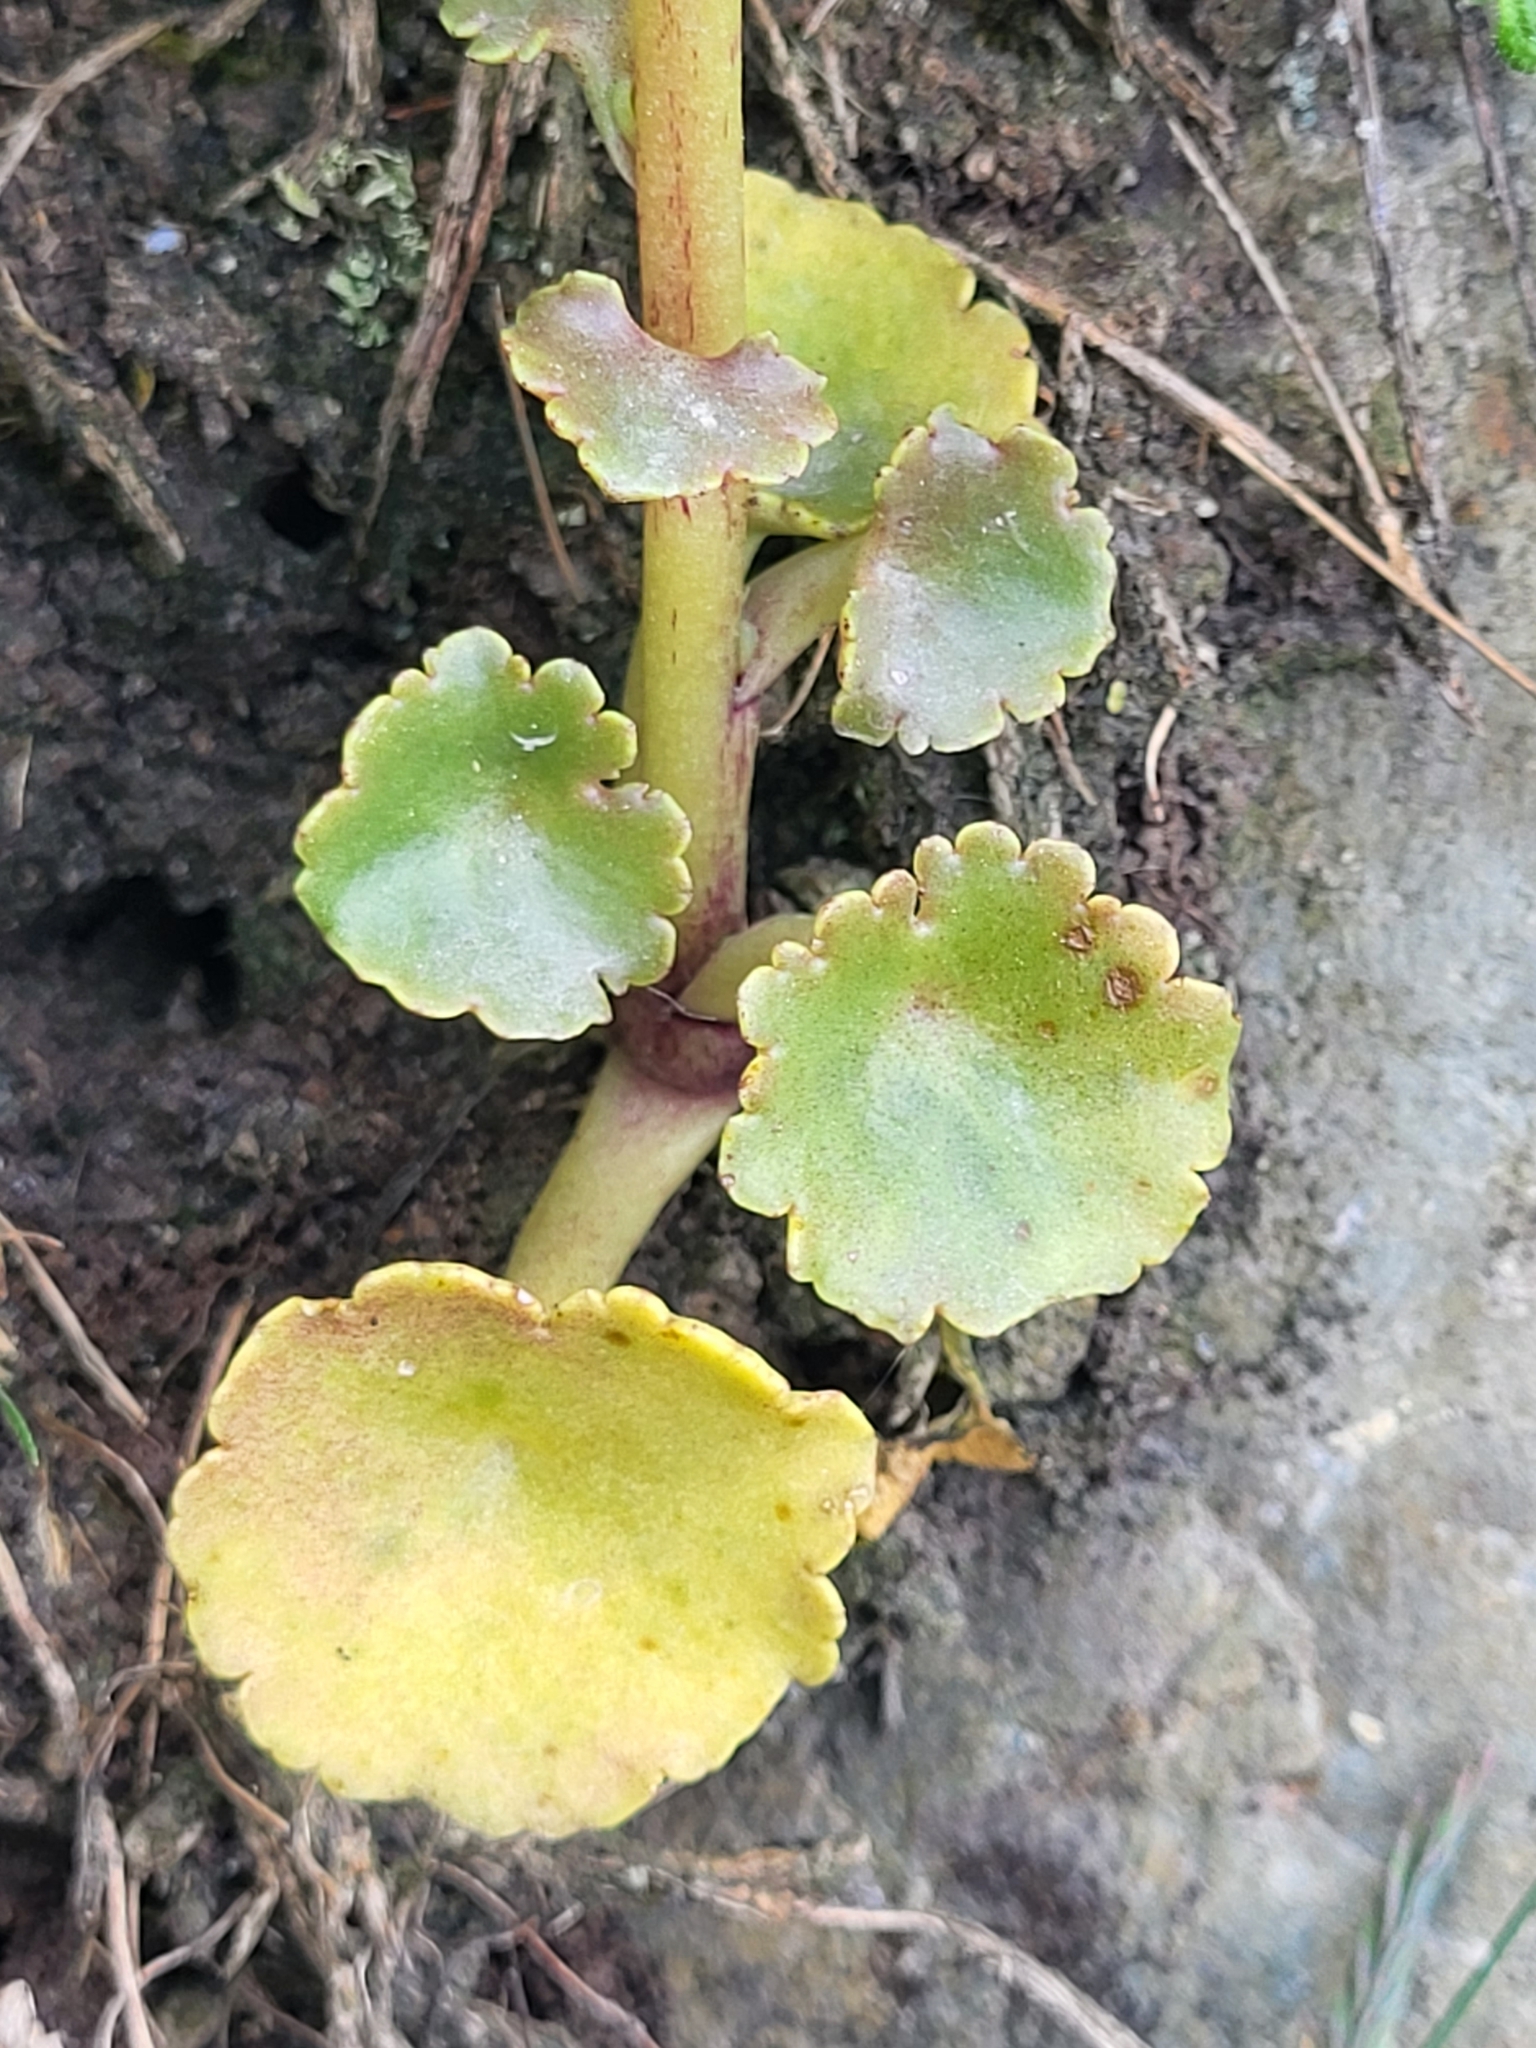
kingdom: Plantae
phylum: Tracheophyta
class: Magnoliopsida
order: Saxifragales
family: Crassulaceae
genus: Umbilicus
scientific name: Umbilicus rupestris
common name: Navelwort
